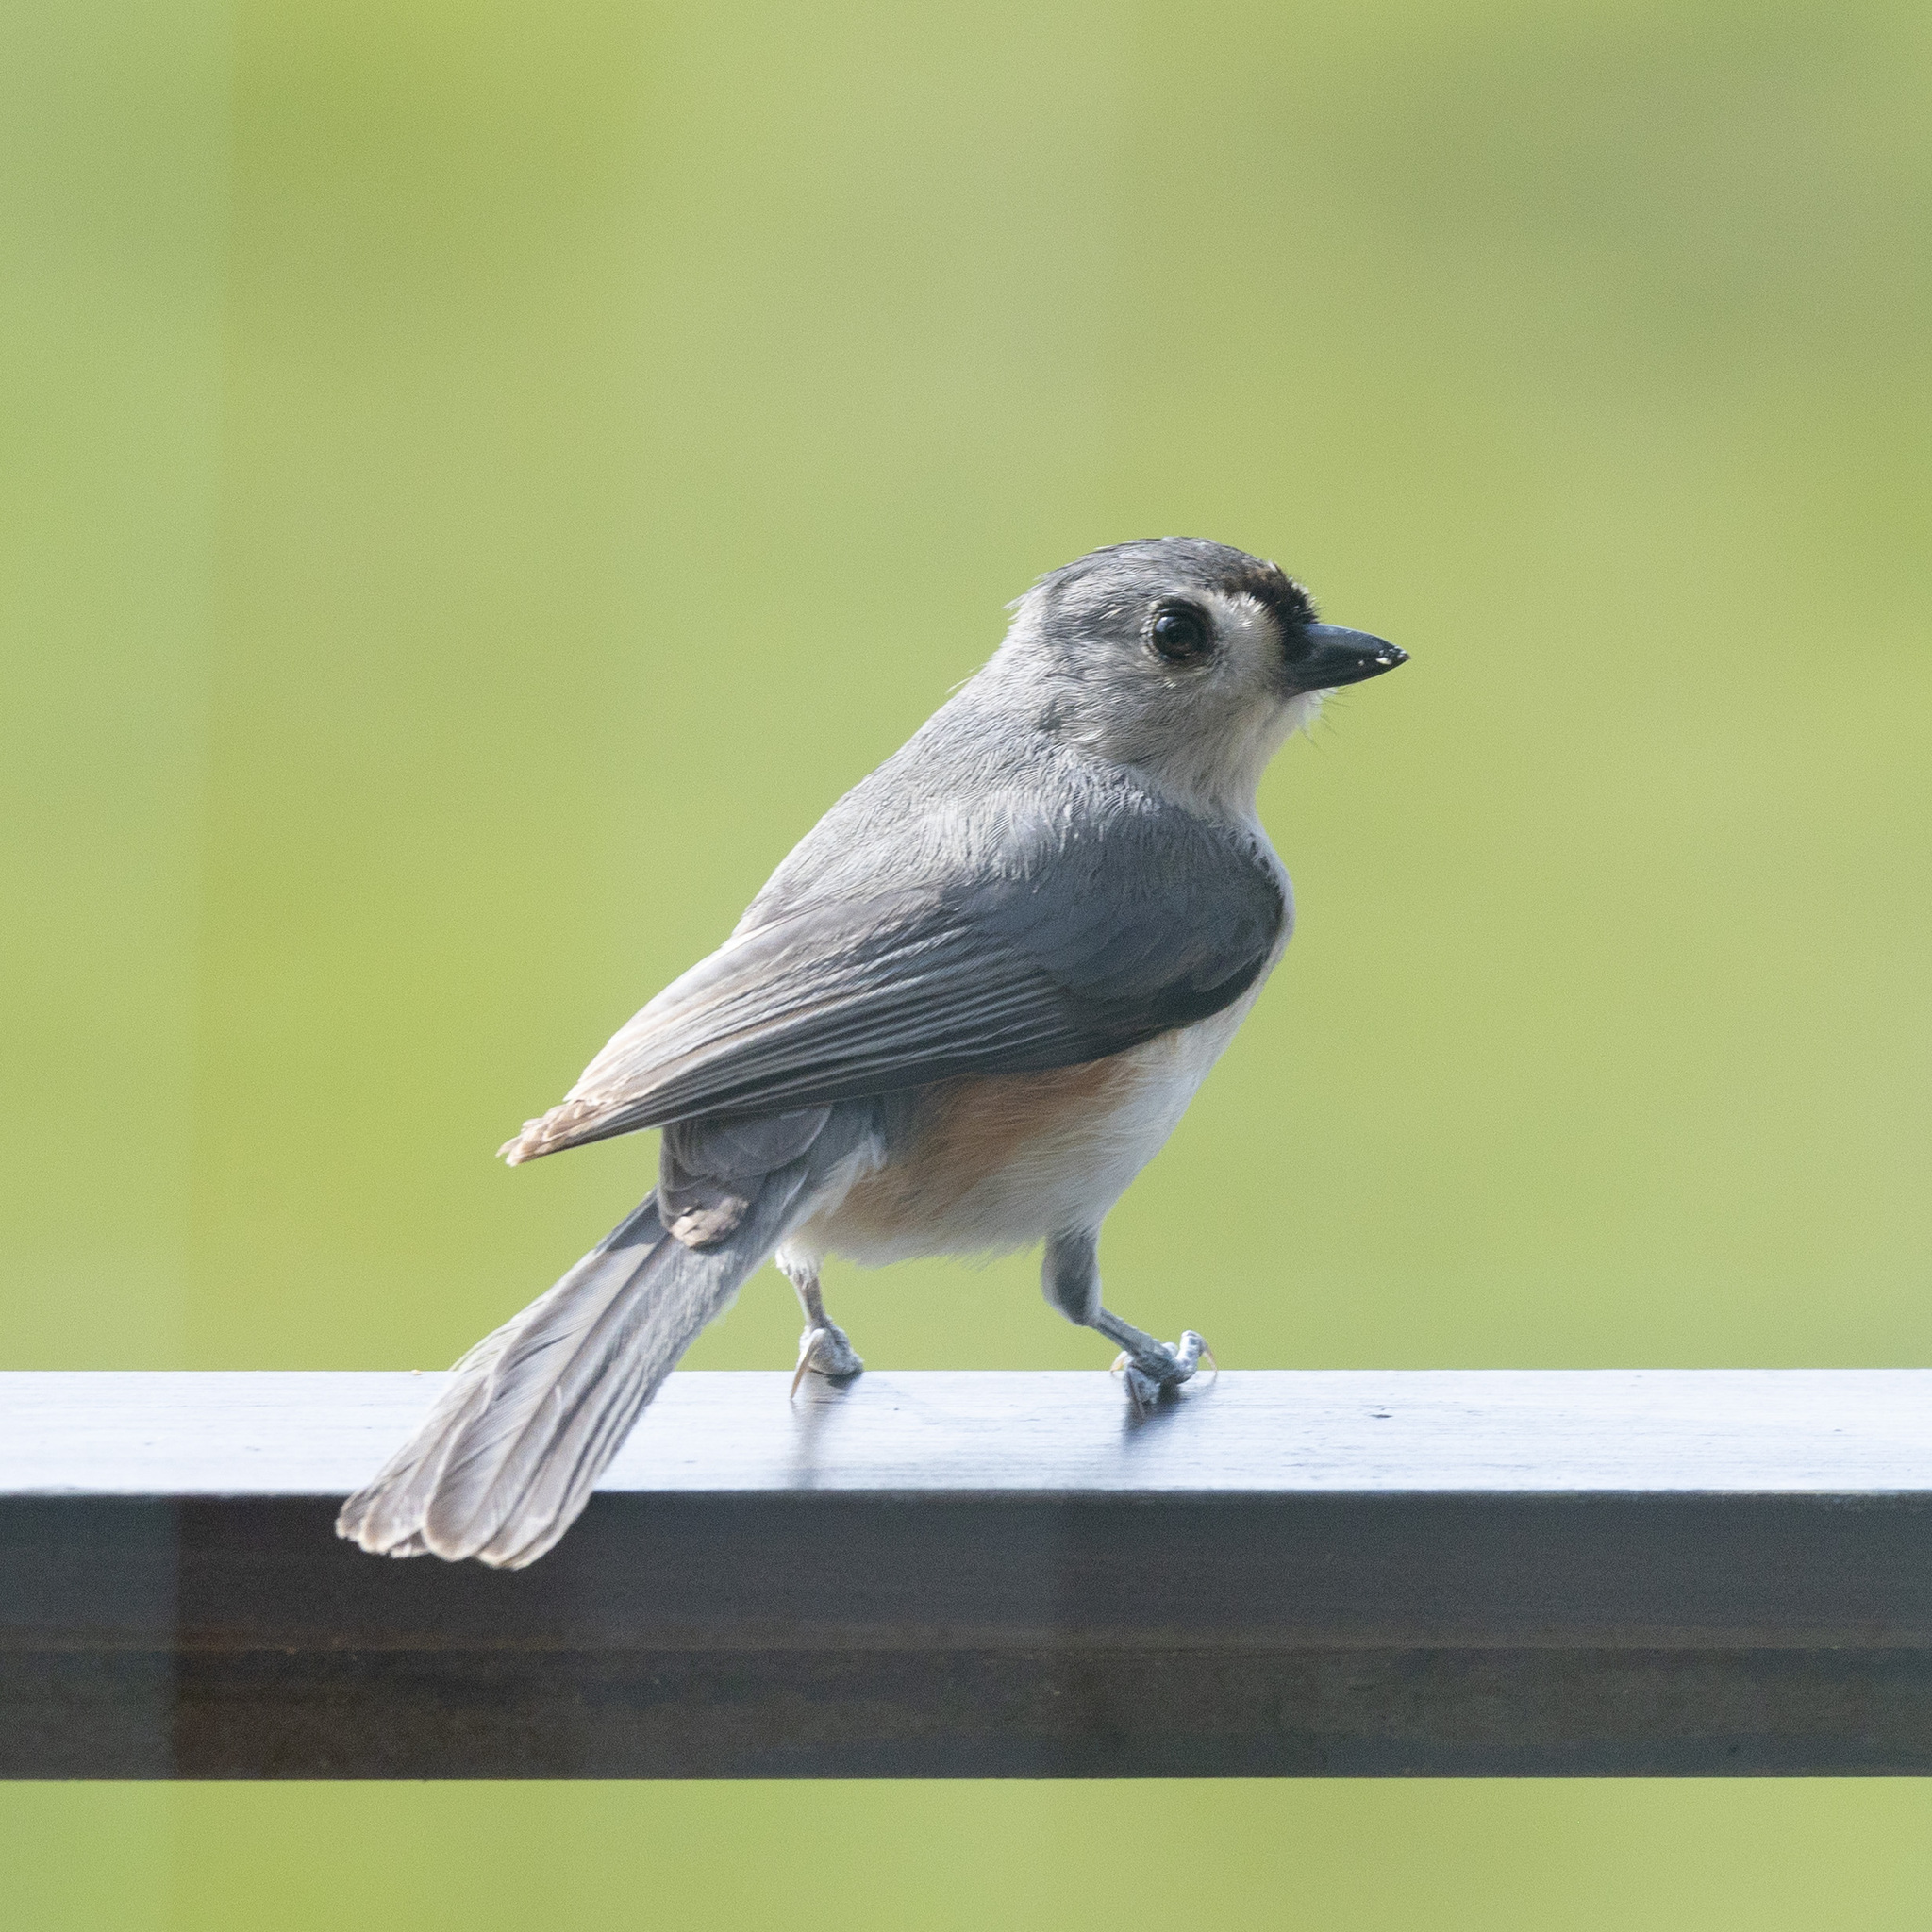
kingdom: Animalia
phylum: Chordata
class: Aves
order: Passeriformes
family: Paridae
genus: Baeolophus
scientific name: Baeolophus bicolor
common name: Tufted titmouse
